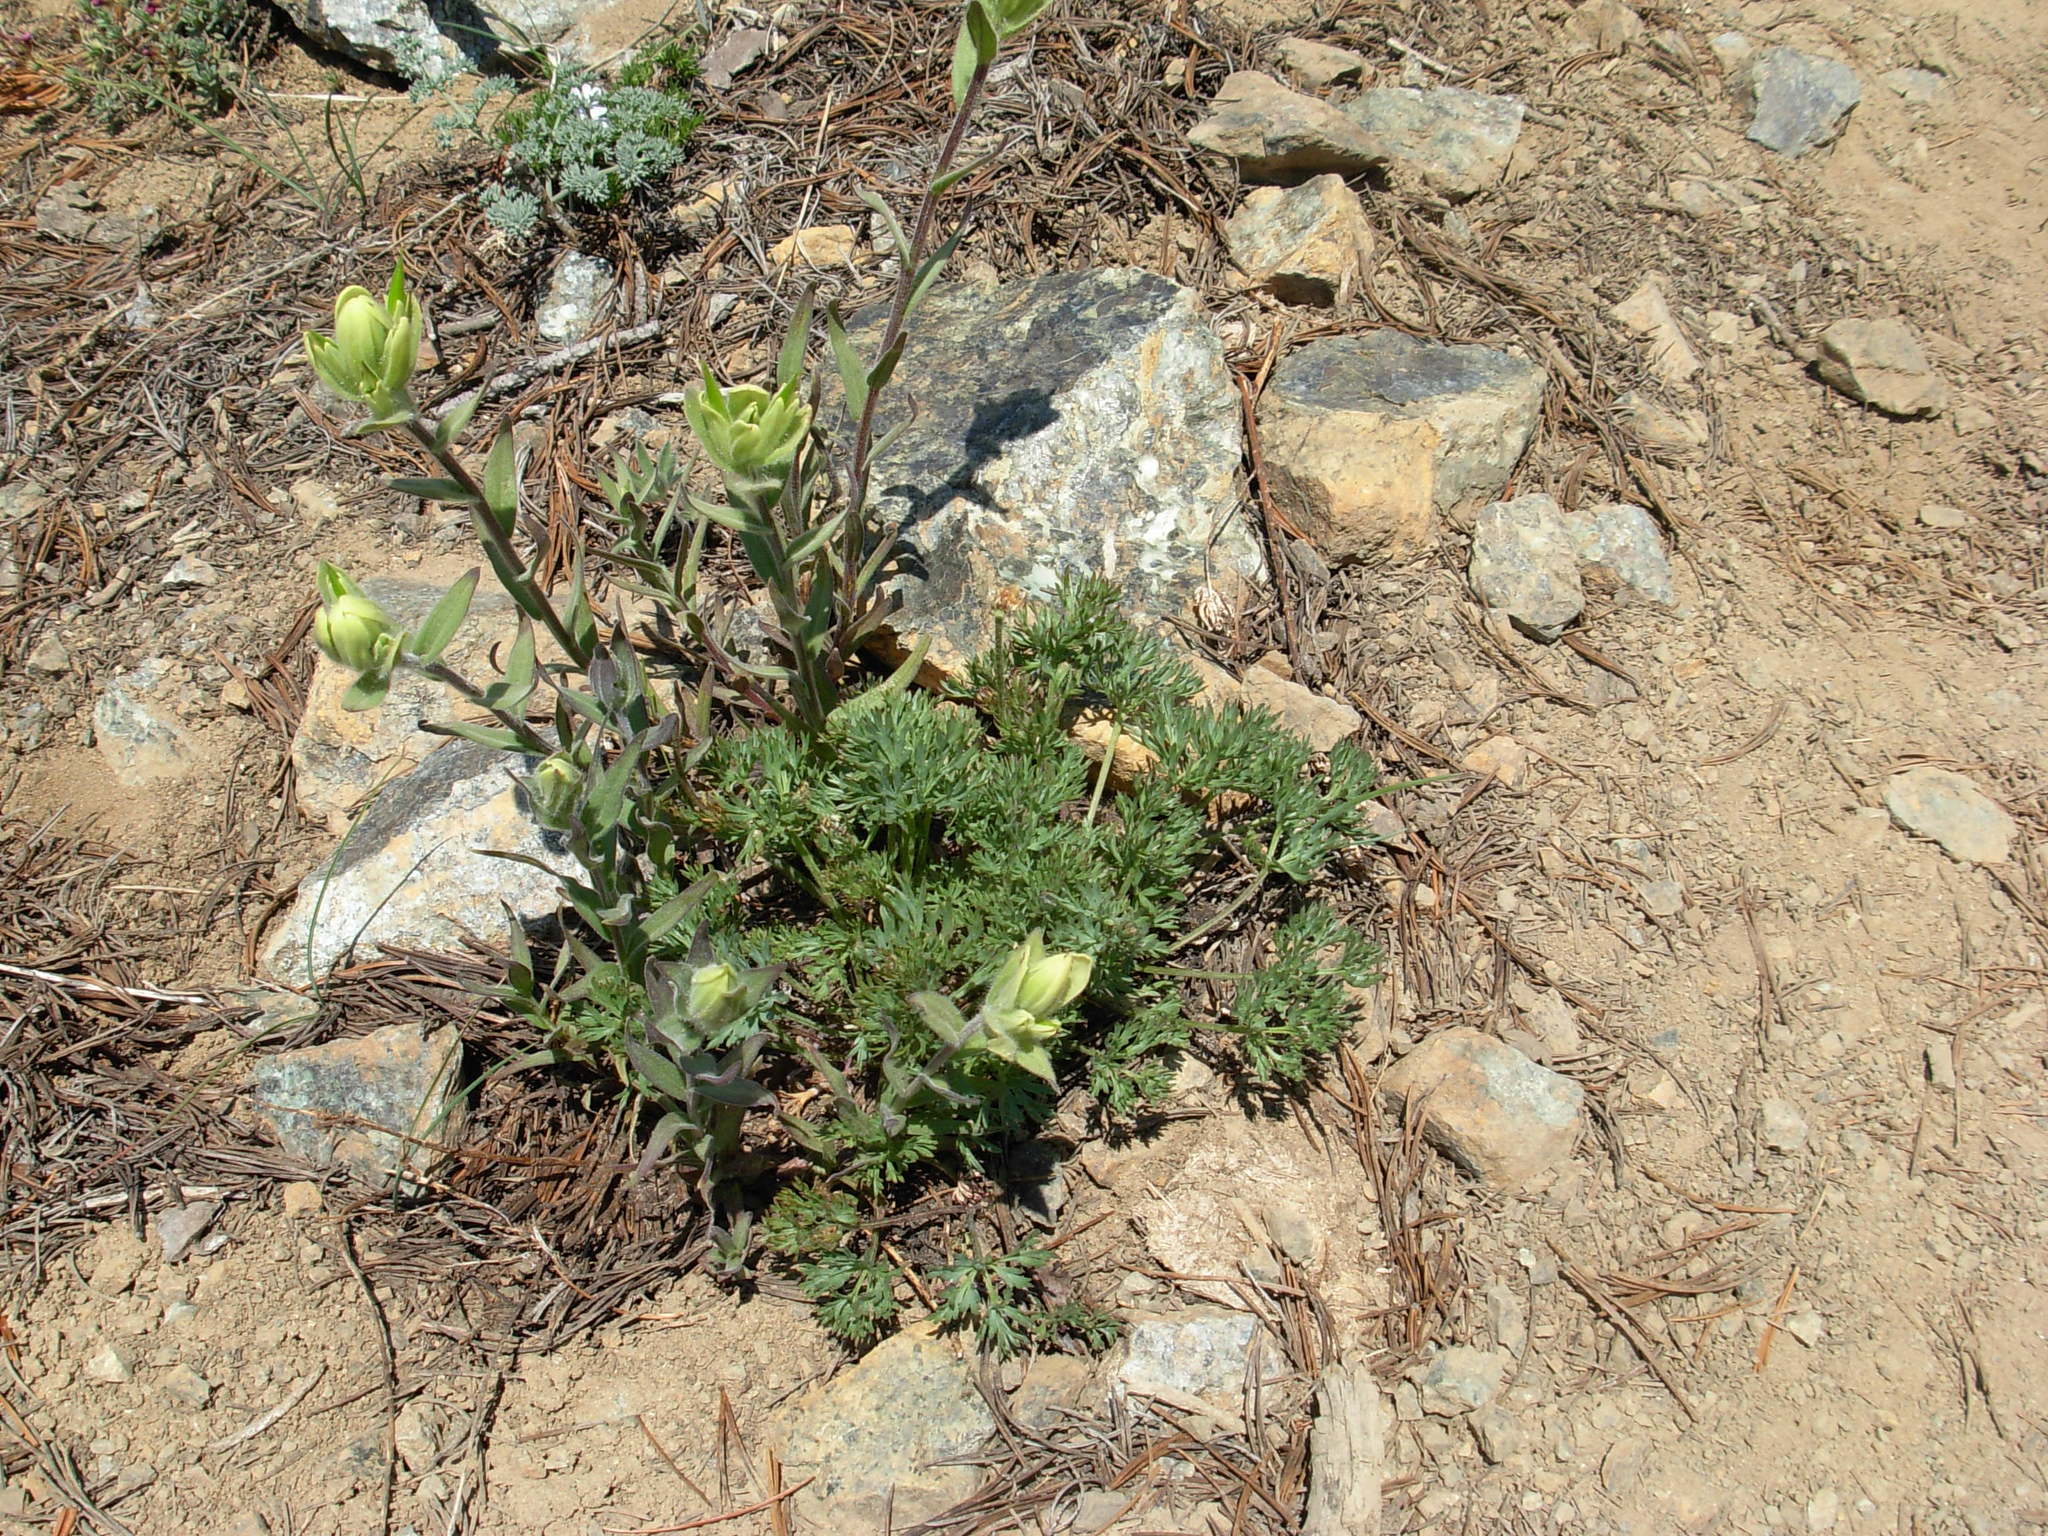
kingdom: Plantae
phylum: Tracheophyta
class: Magnoliopsida
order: Lamiales
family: Orobanchaceae
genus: Castilleja
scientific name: Castilleja elmeri
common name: Elmer's paintbrush
